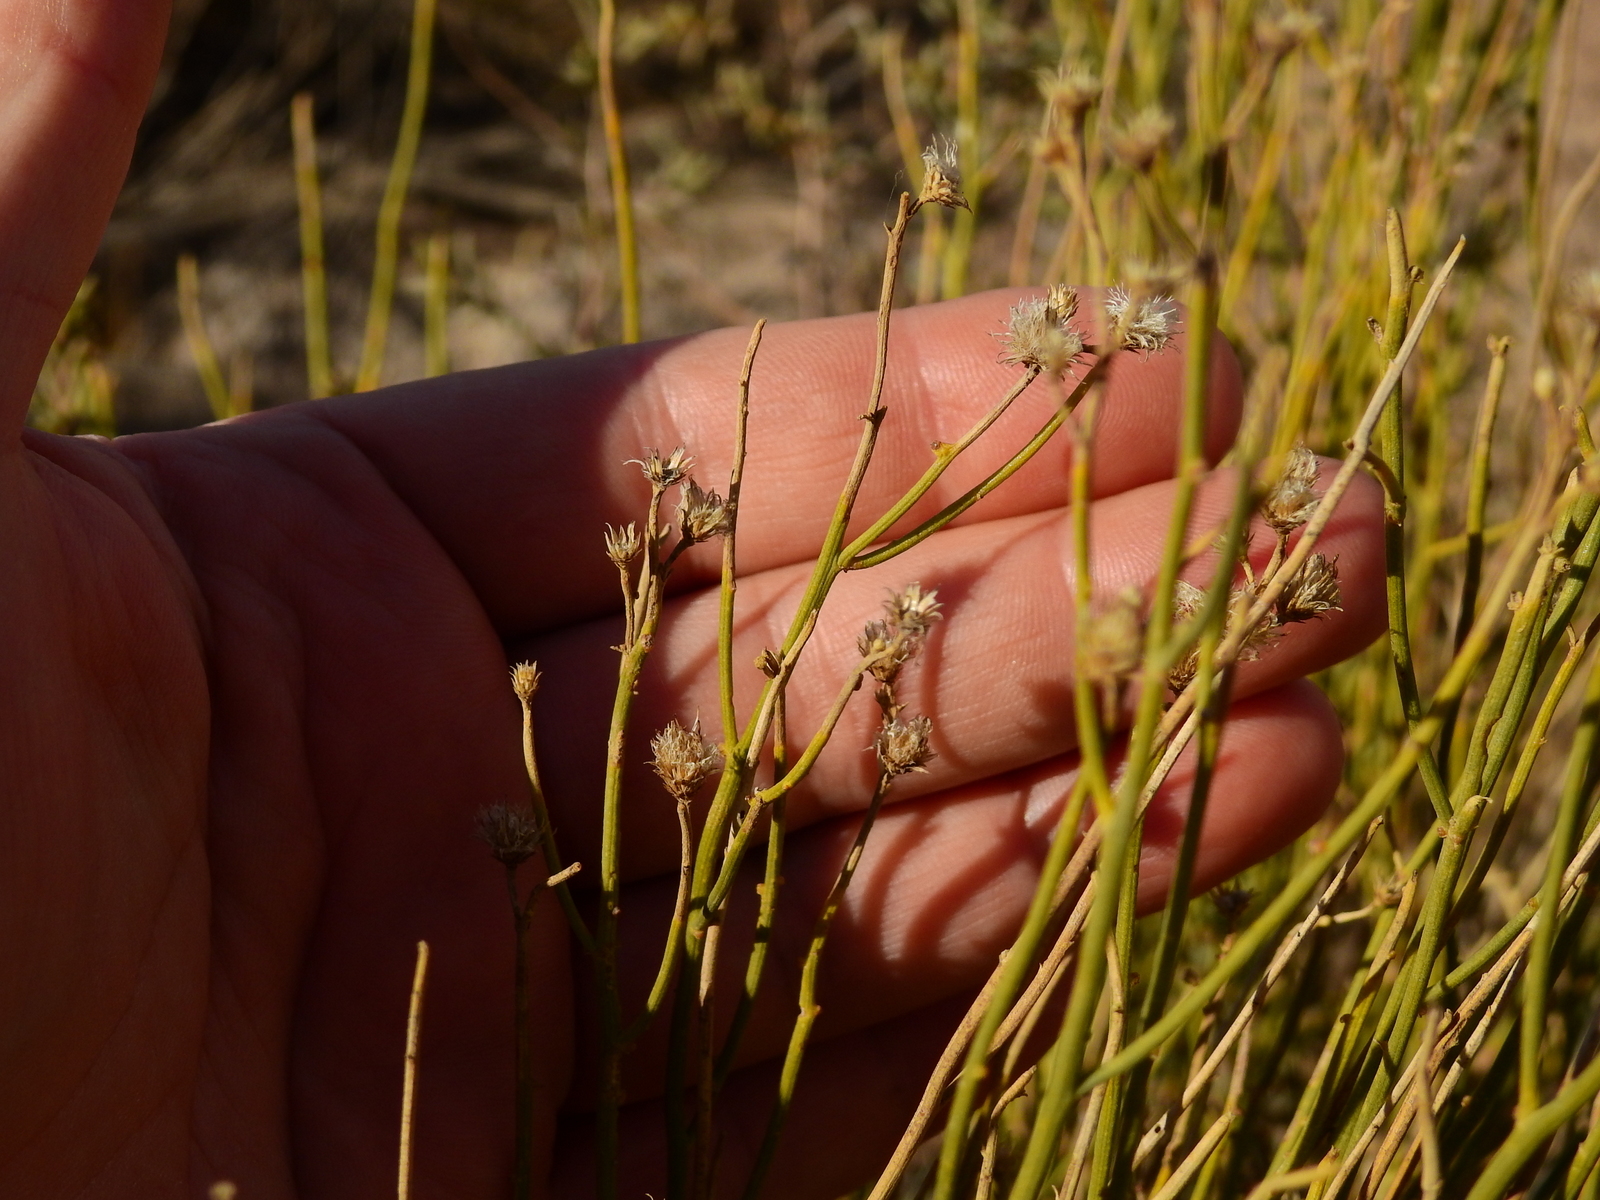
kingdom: Plantae
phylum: Tracheophyta
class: Magnoliopsida
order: Asterales
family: Asteraceae
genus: Pseudobaccharis
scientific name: Pseudobaccharis spartioides
